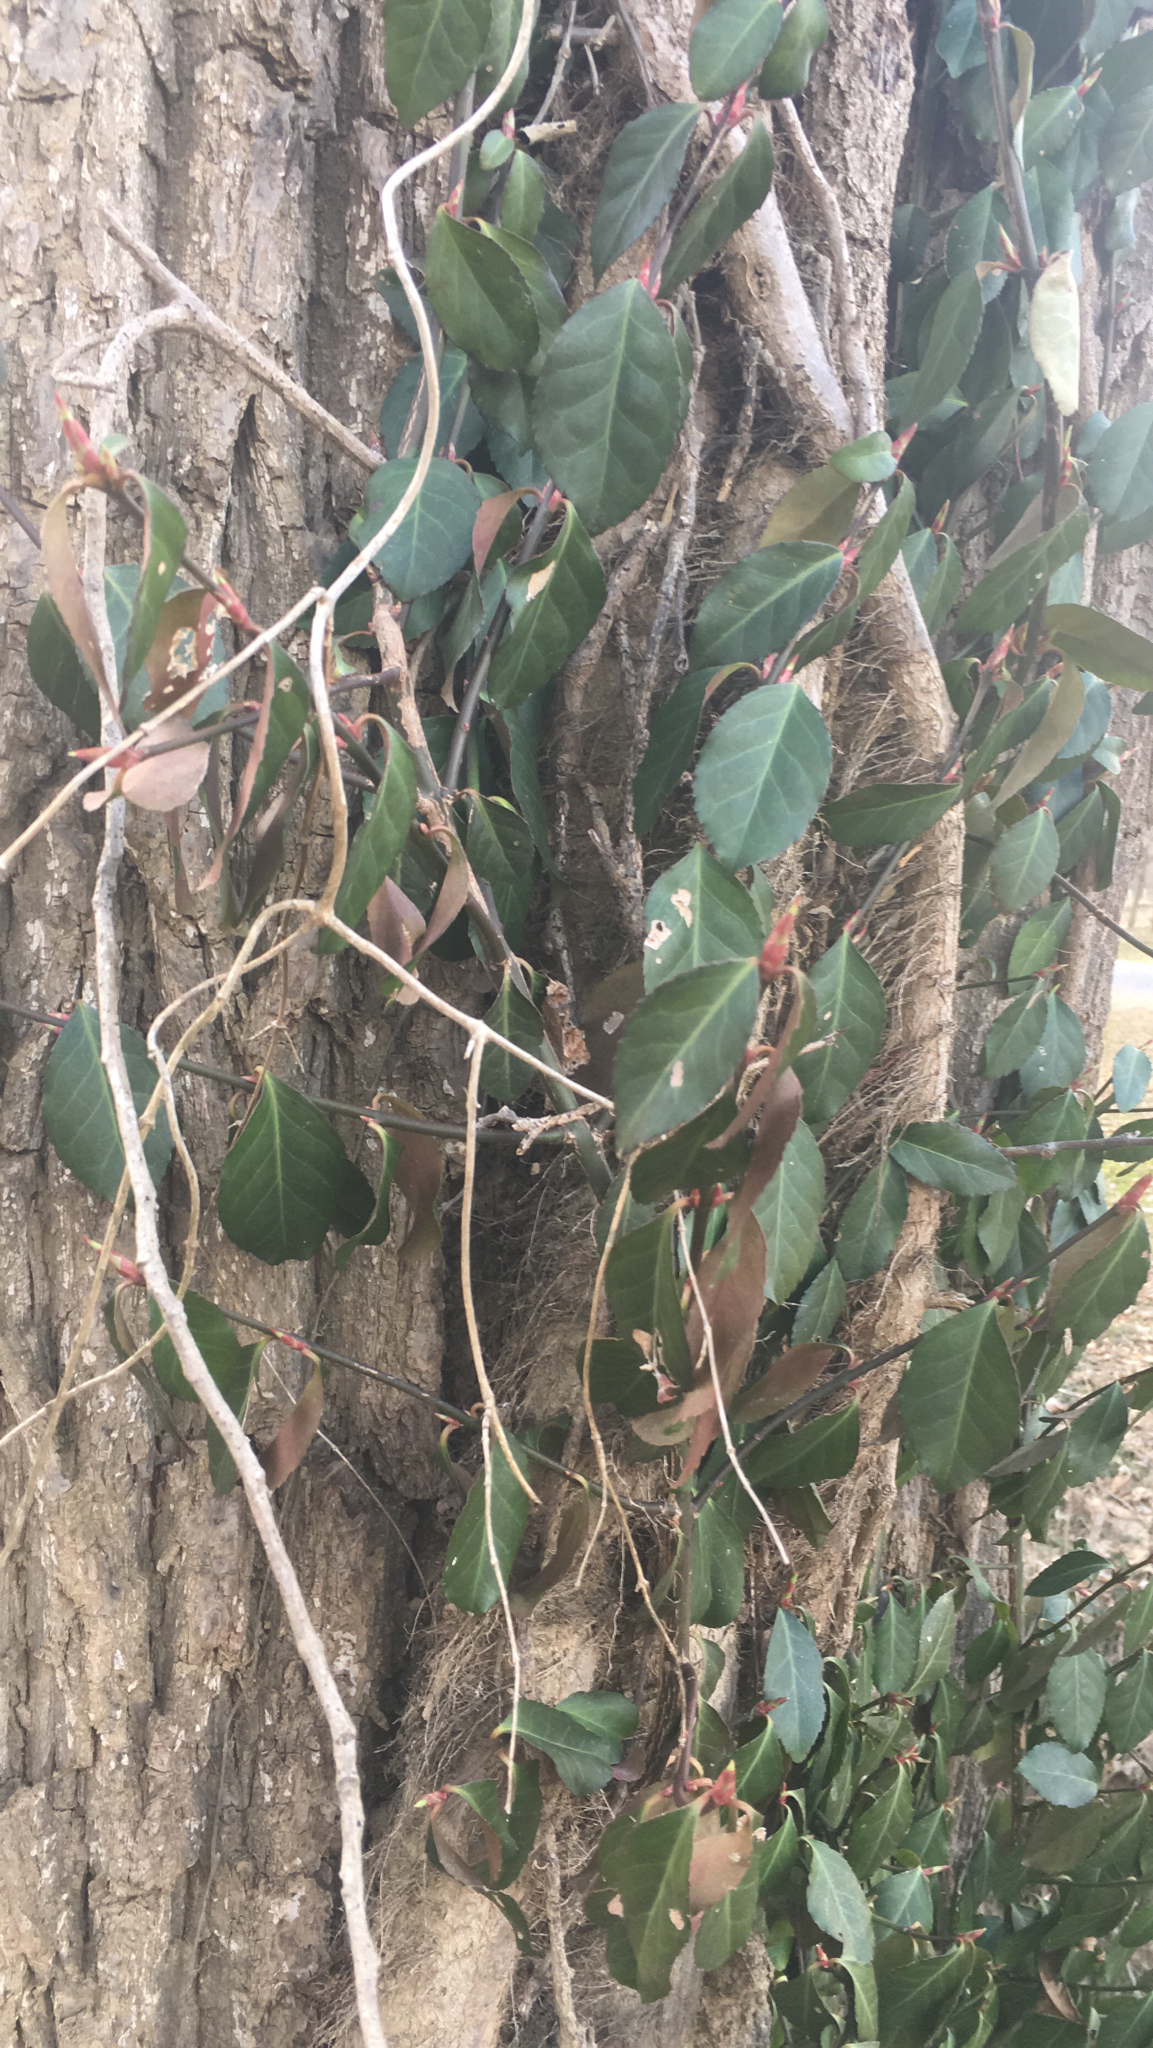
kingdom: Plantae
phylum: Tracheophyta
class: Magnoliopsida
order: Celastrales
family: Celastraceae
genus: Euonymus
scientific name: Euonymus fortunei
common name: Climbing euonymus
